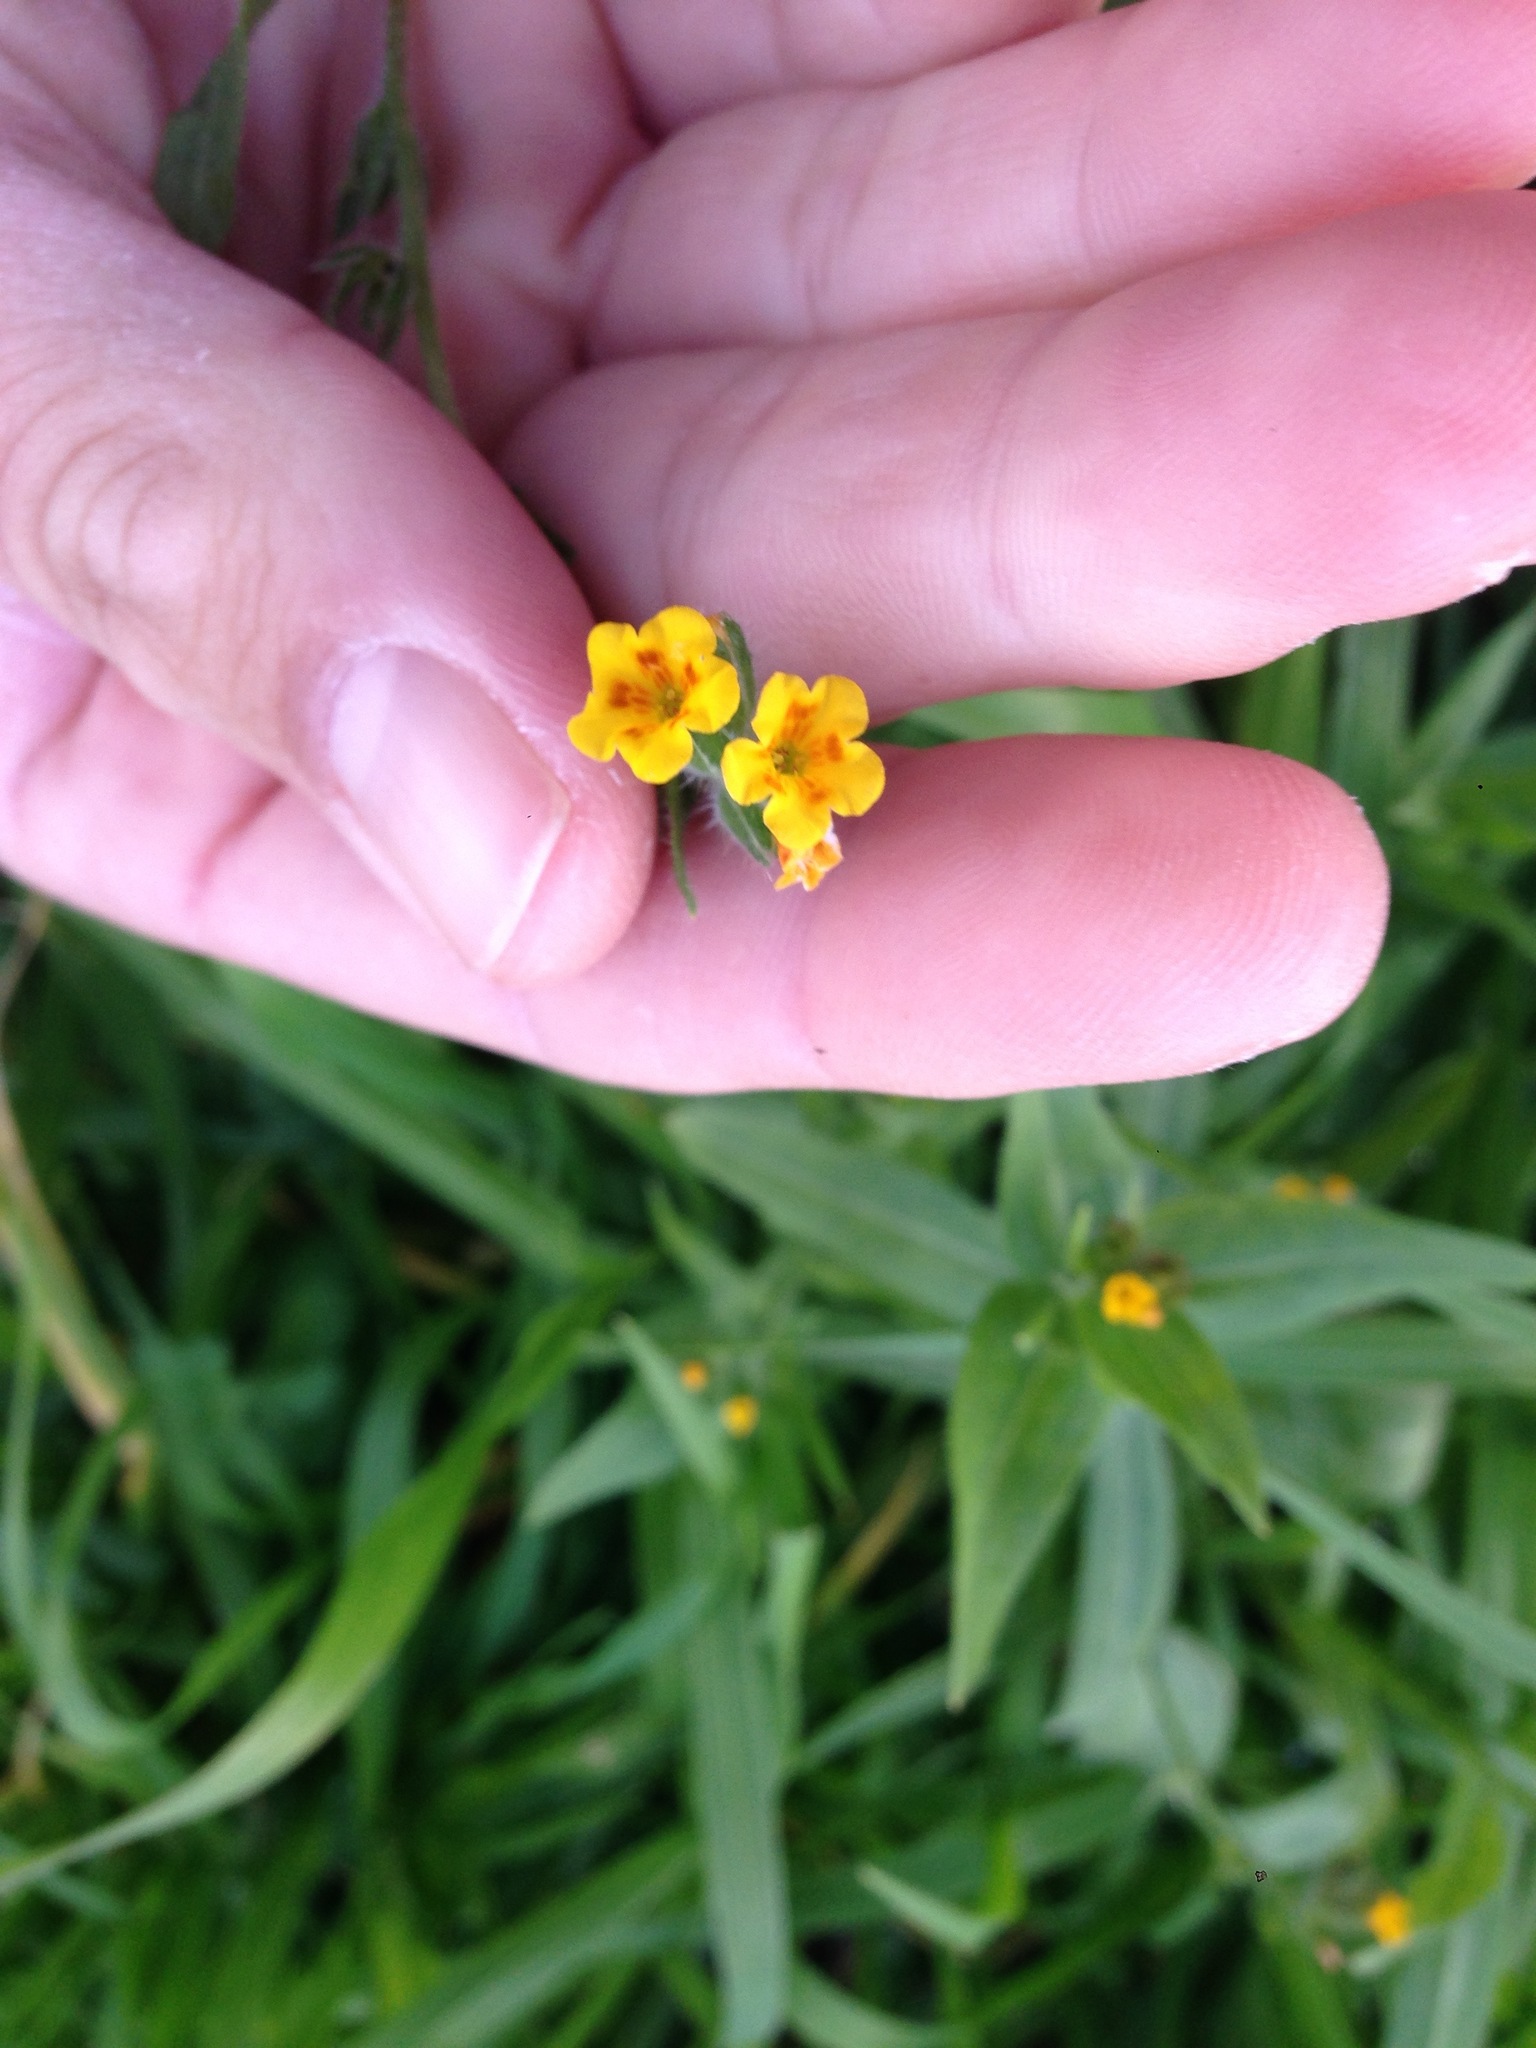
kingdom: Plantae
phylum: Tracheophyta
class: Magnoliopsida
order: Boraginales
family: Boraginaceae
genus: Amsinckia
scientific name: Amsinckia menziesii
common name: Menzies' fiddleneck
